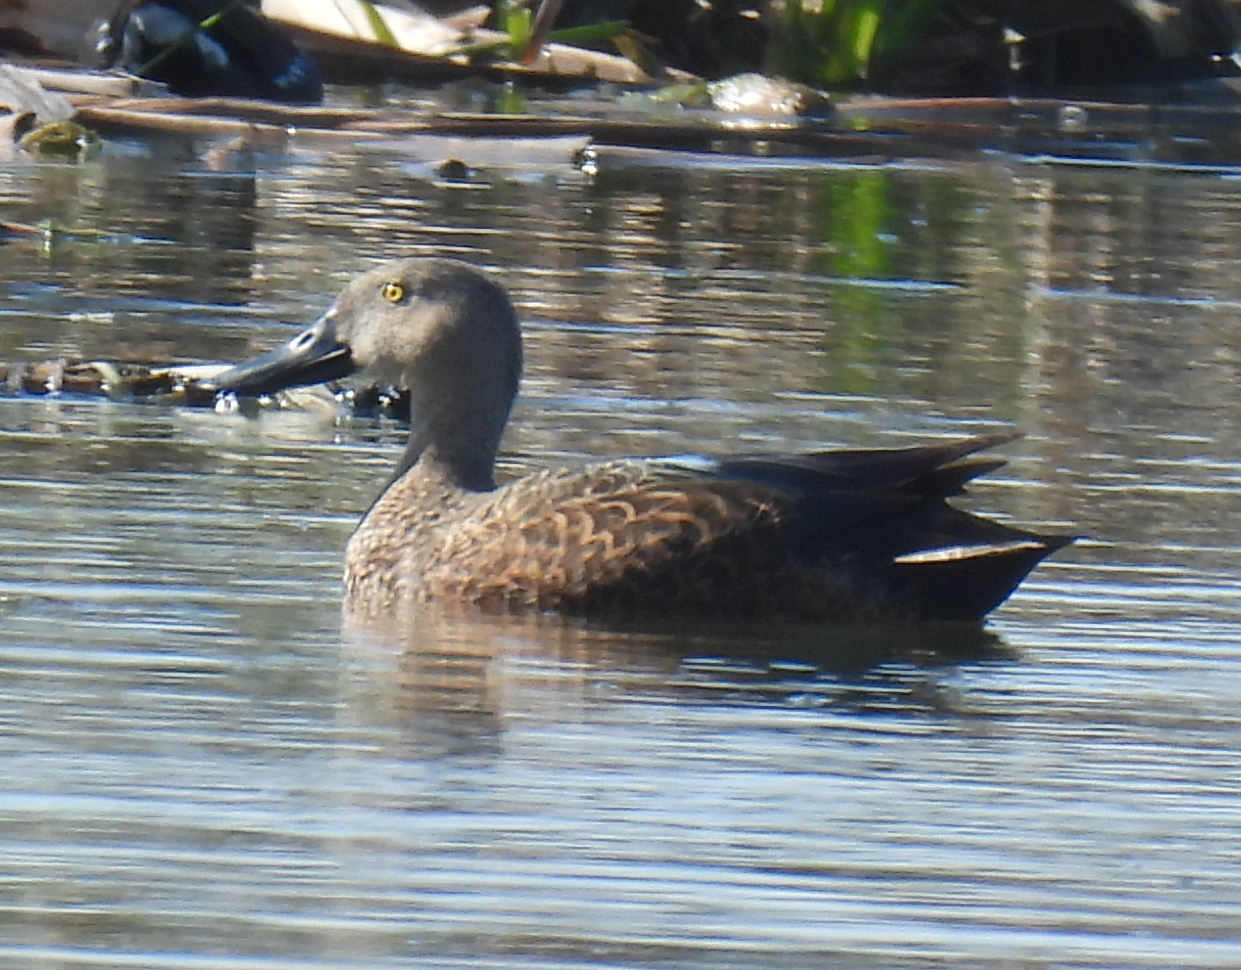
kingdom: Animalia
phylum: Chordata
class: Aves
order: Anseriformes
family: Anatidae
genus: Spatula
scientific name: Spatula smithii
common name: Cape shoveler
